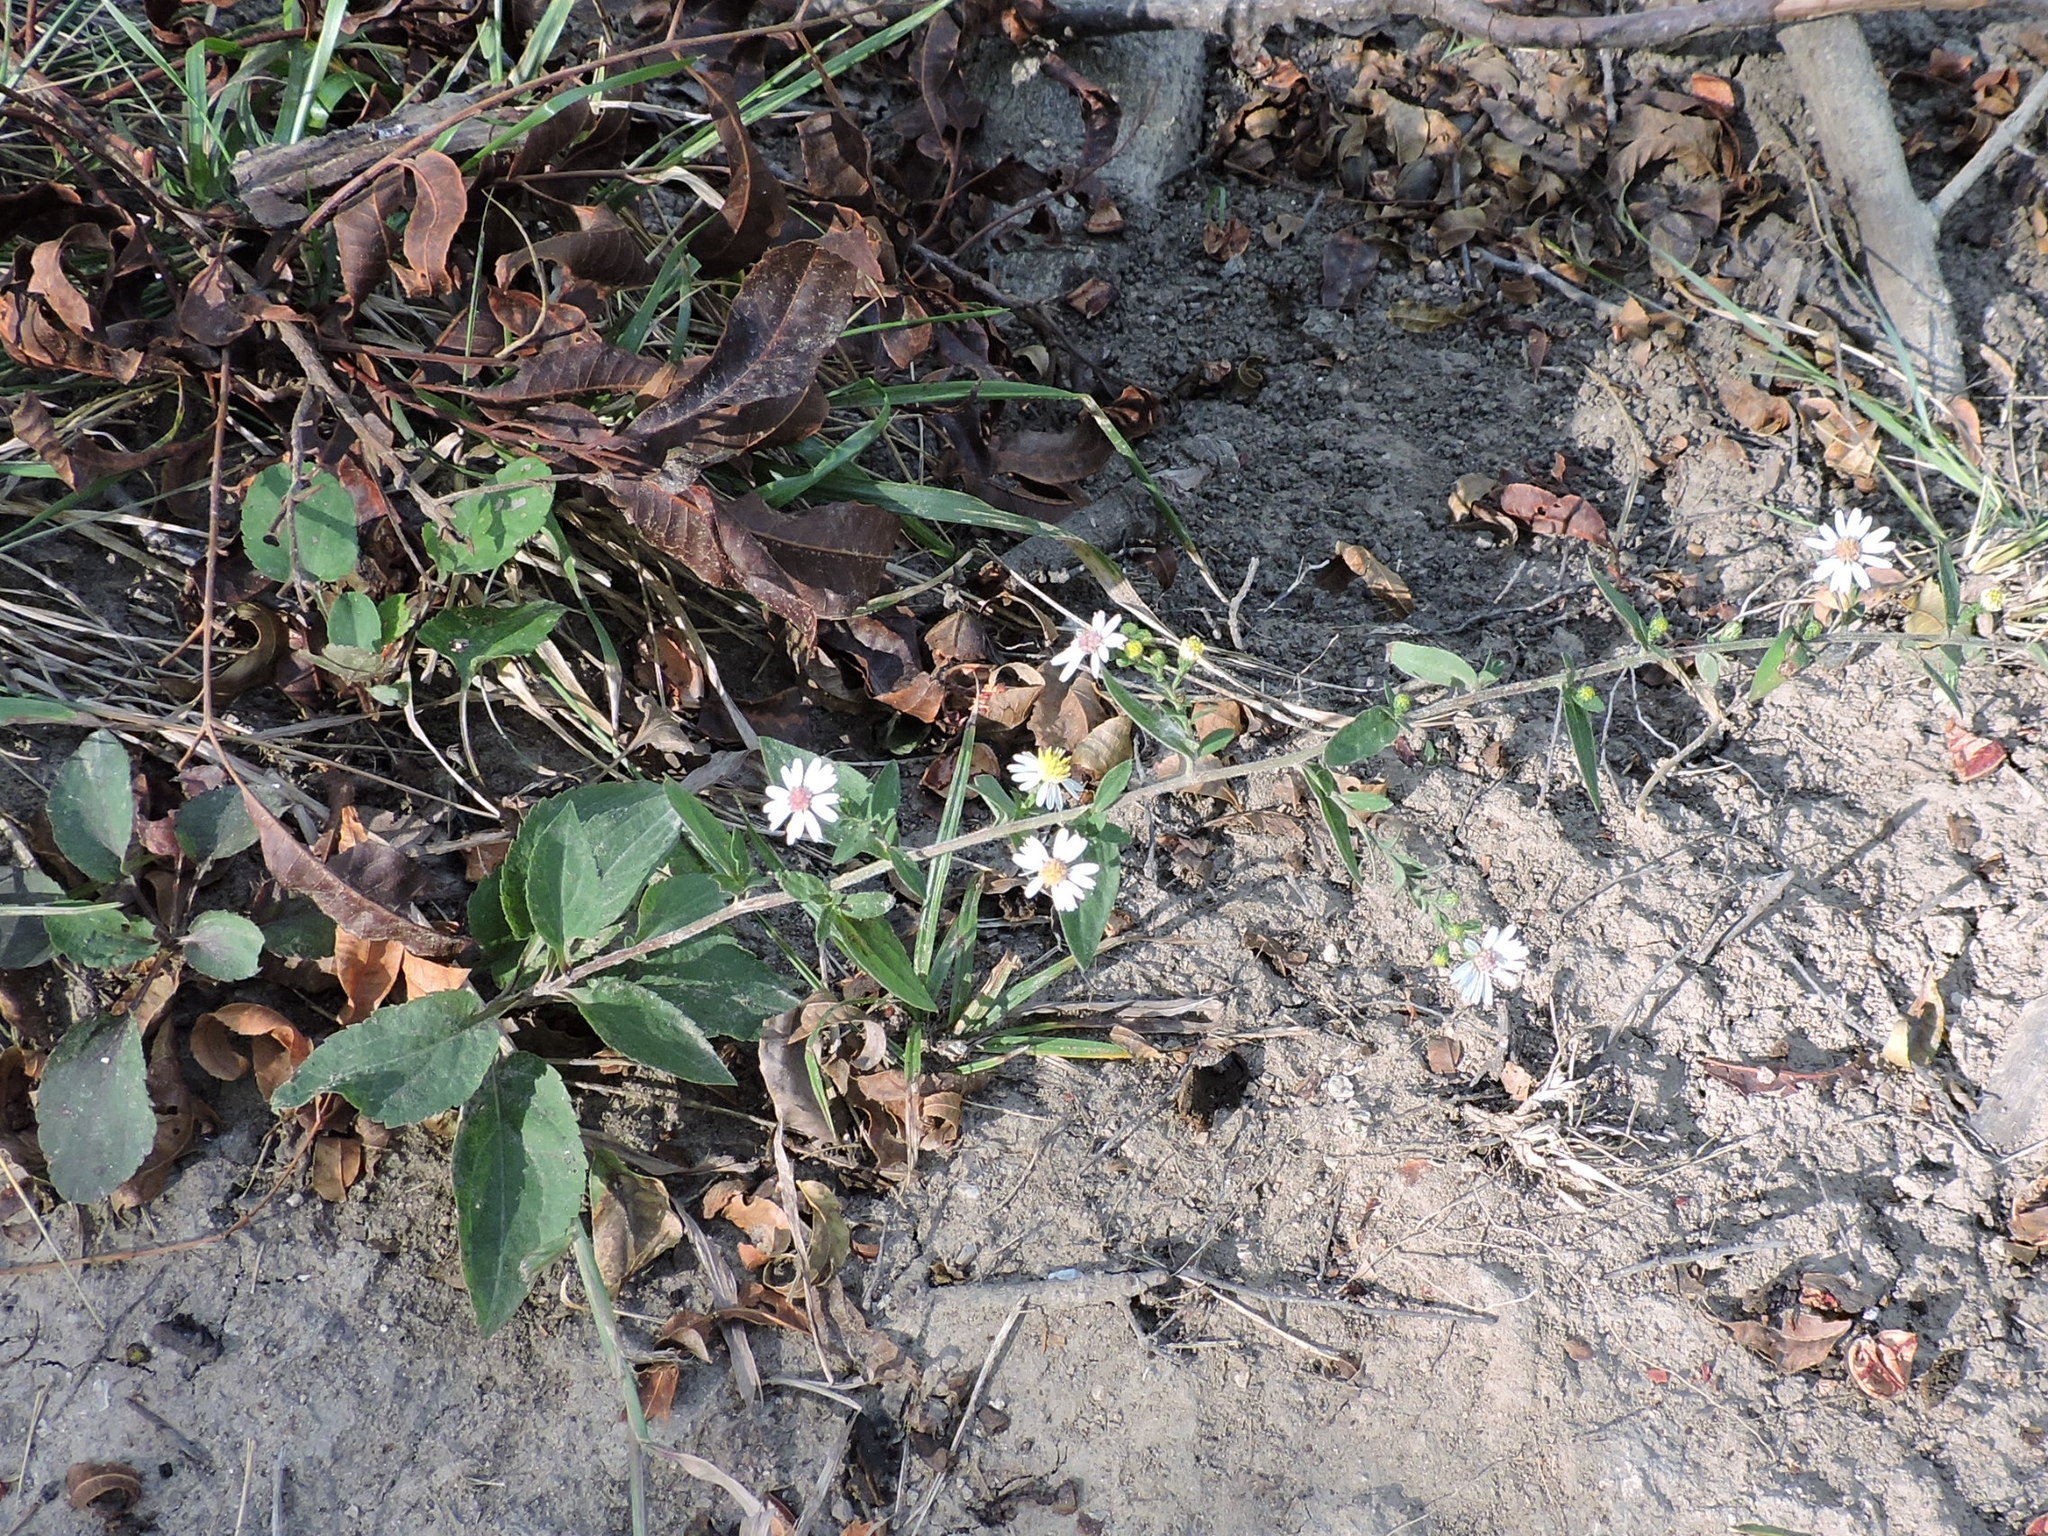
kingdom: Plantae
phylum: Tracheophyta
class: Magnoliopsida
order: Asterales
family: Asteraceae
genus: Symphyotrichum
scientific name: Symphyotrichum drummondii
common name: Drummond's aster
